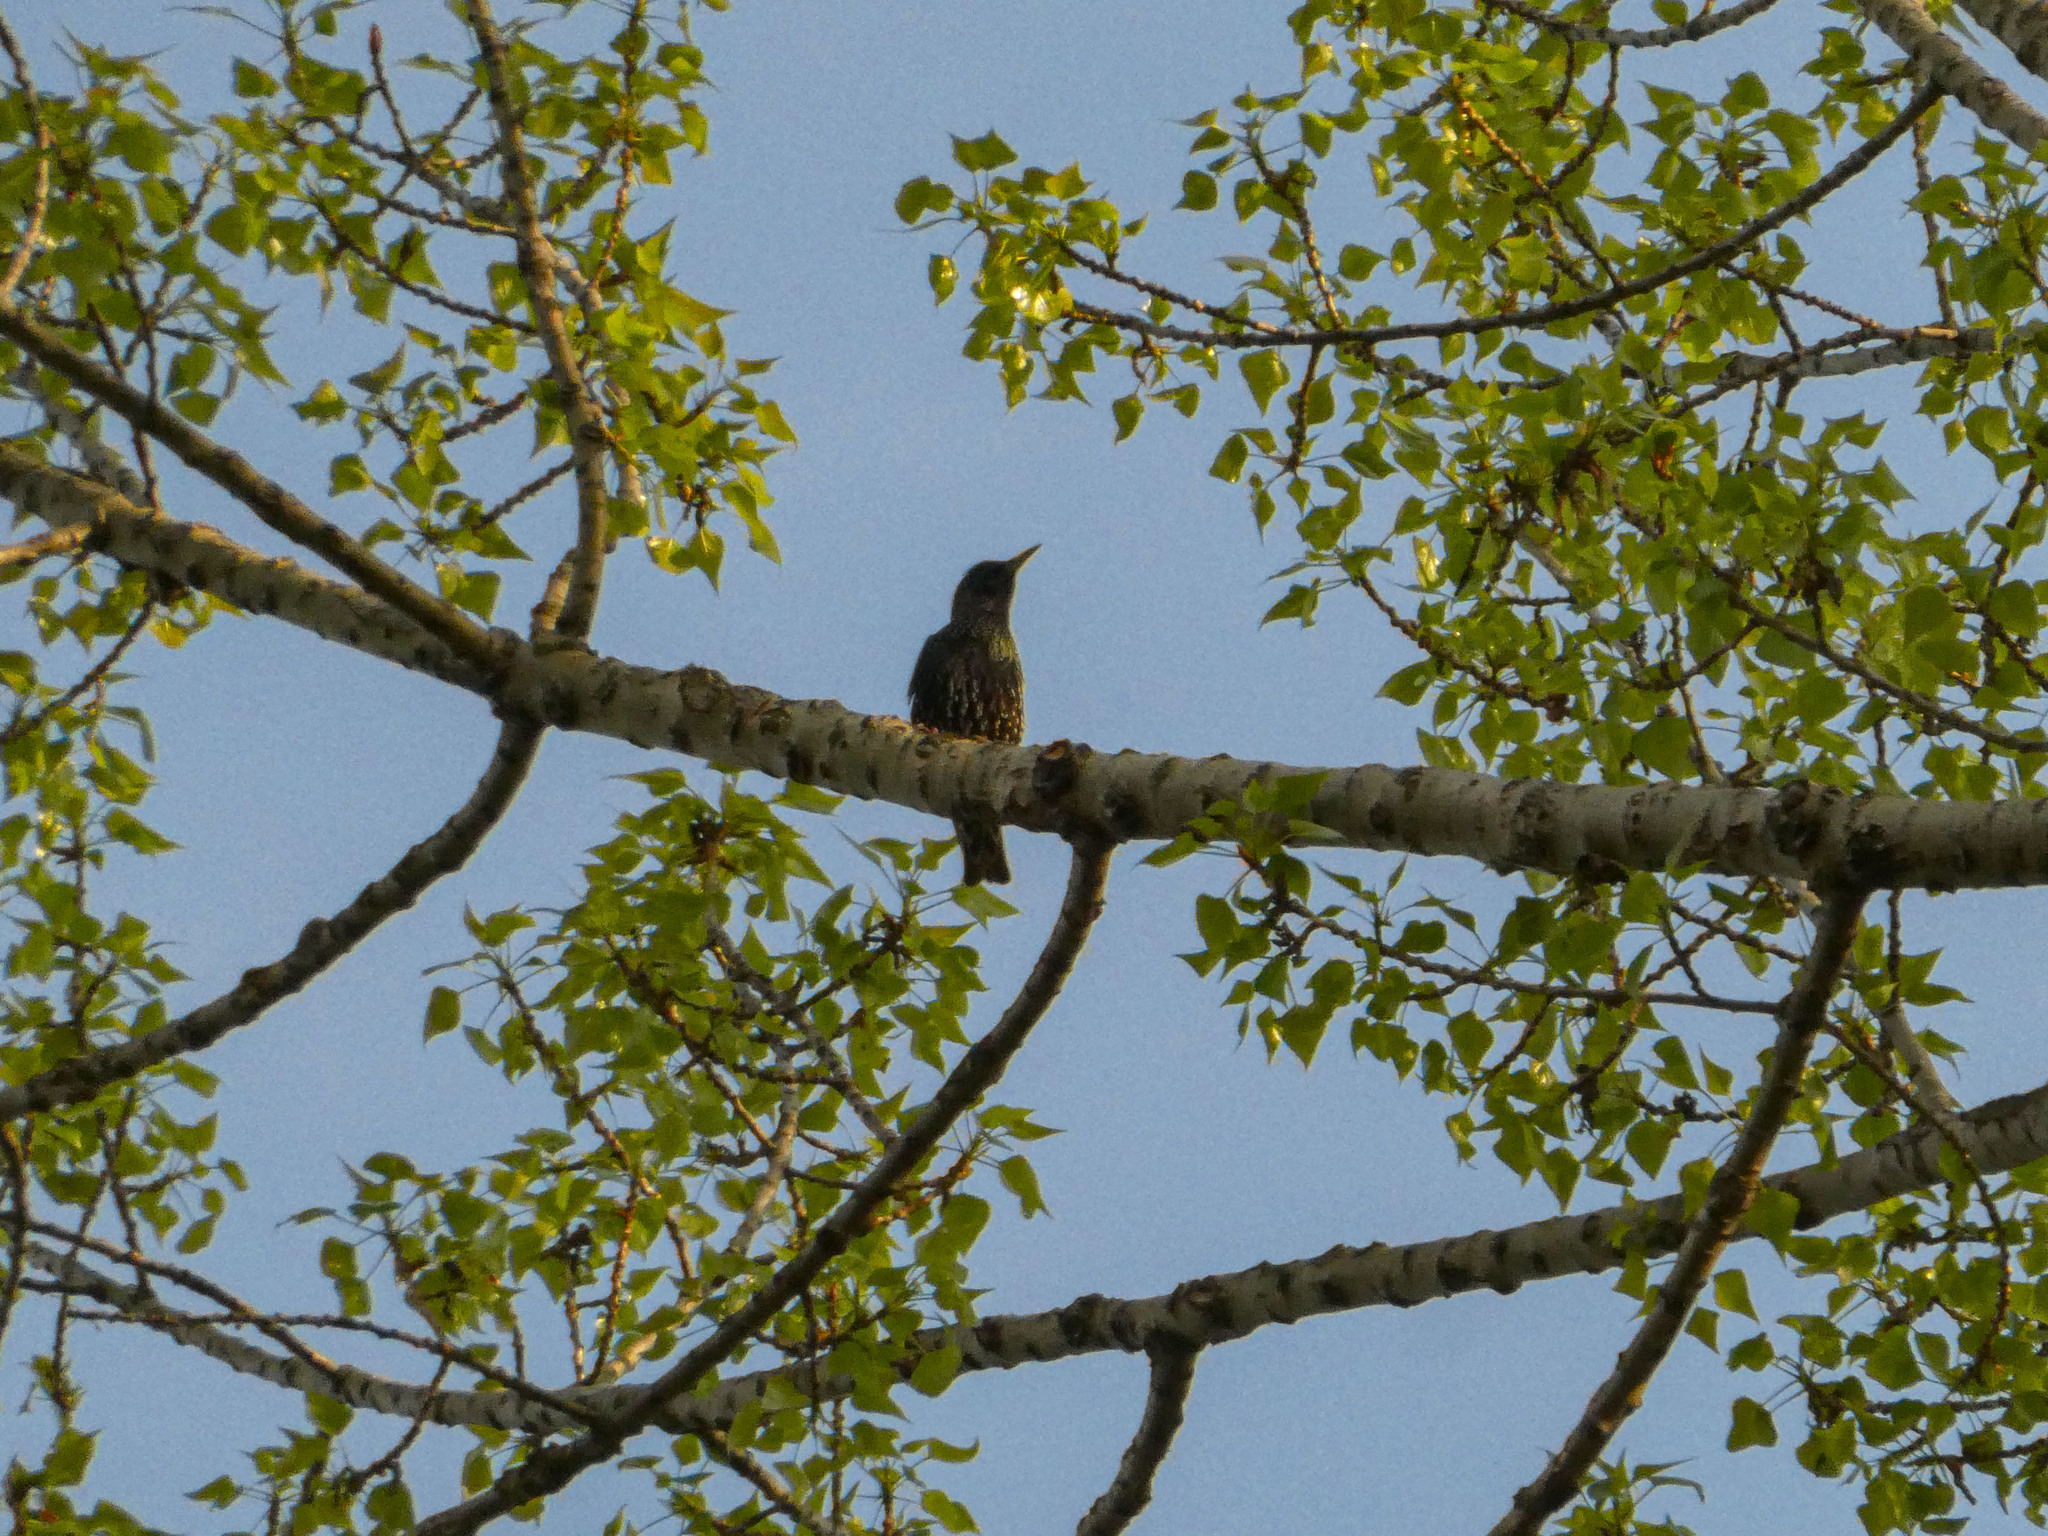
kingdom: Animalia
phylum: Chordata
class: Aves
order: Passeriformes
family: Sturnidae
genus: Sturnus
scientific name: Sturnus vulgaris
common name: Common starling
